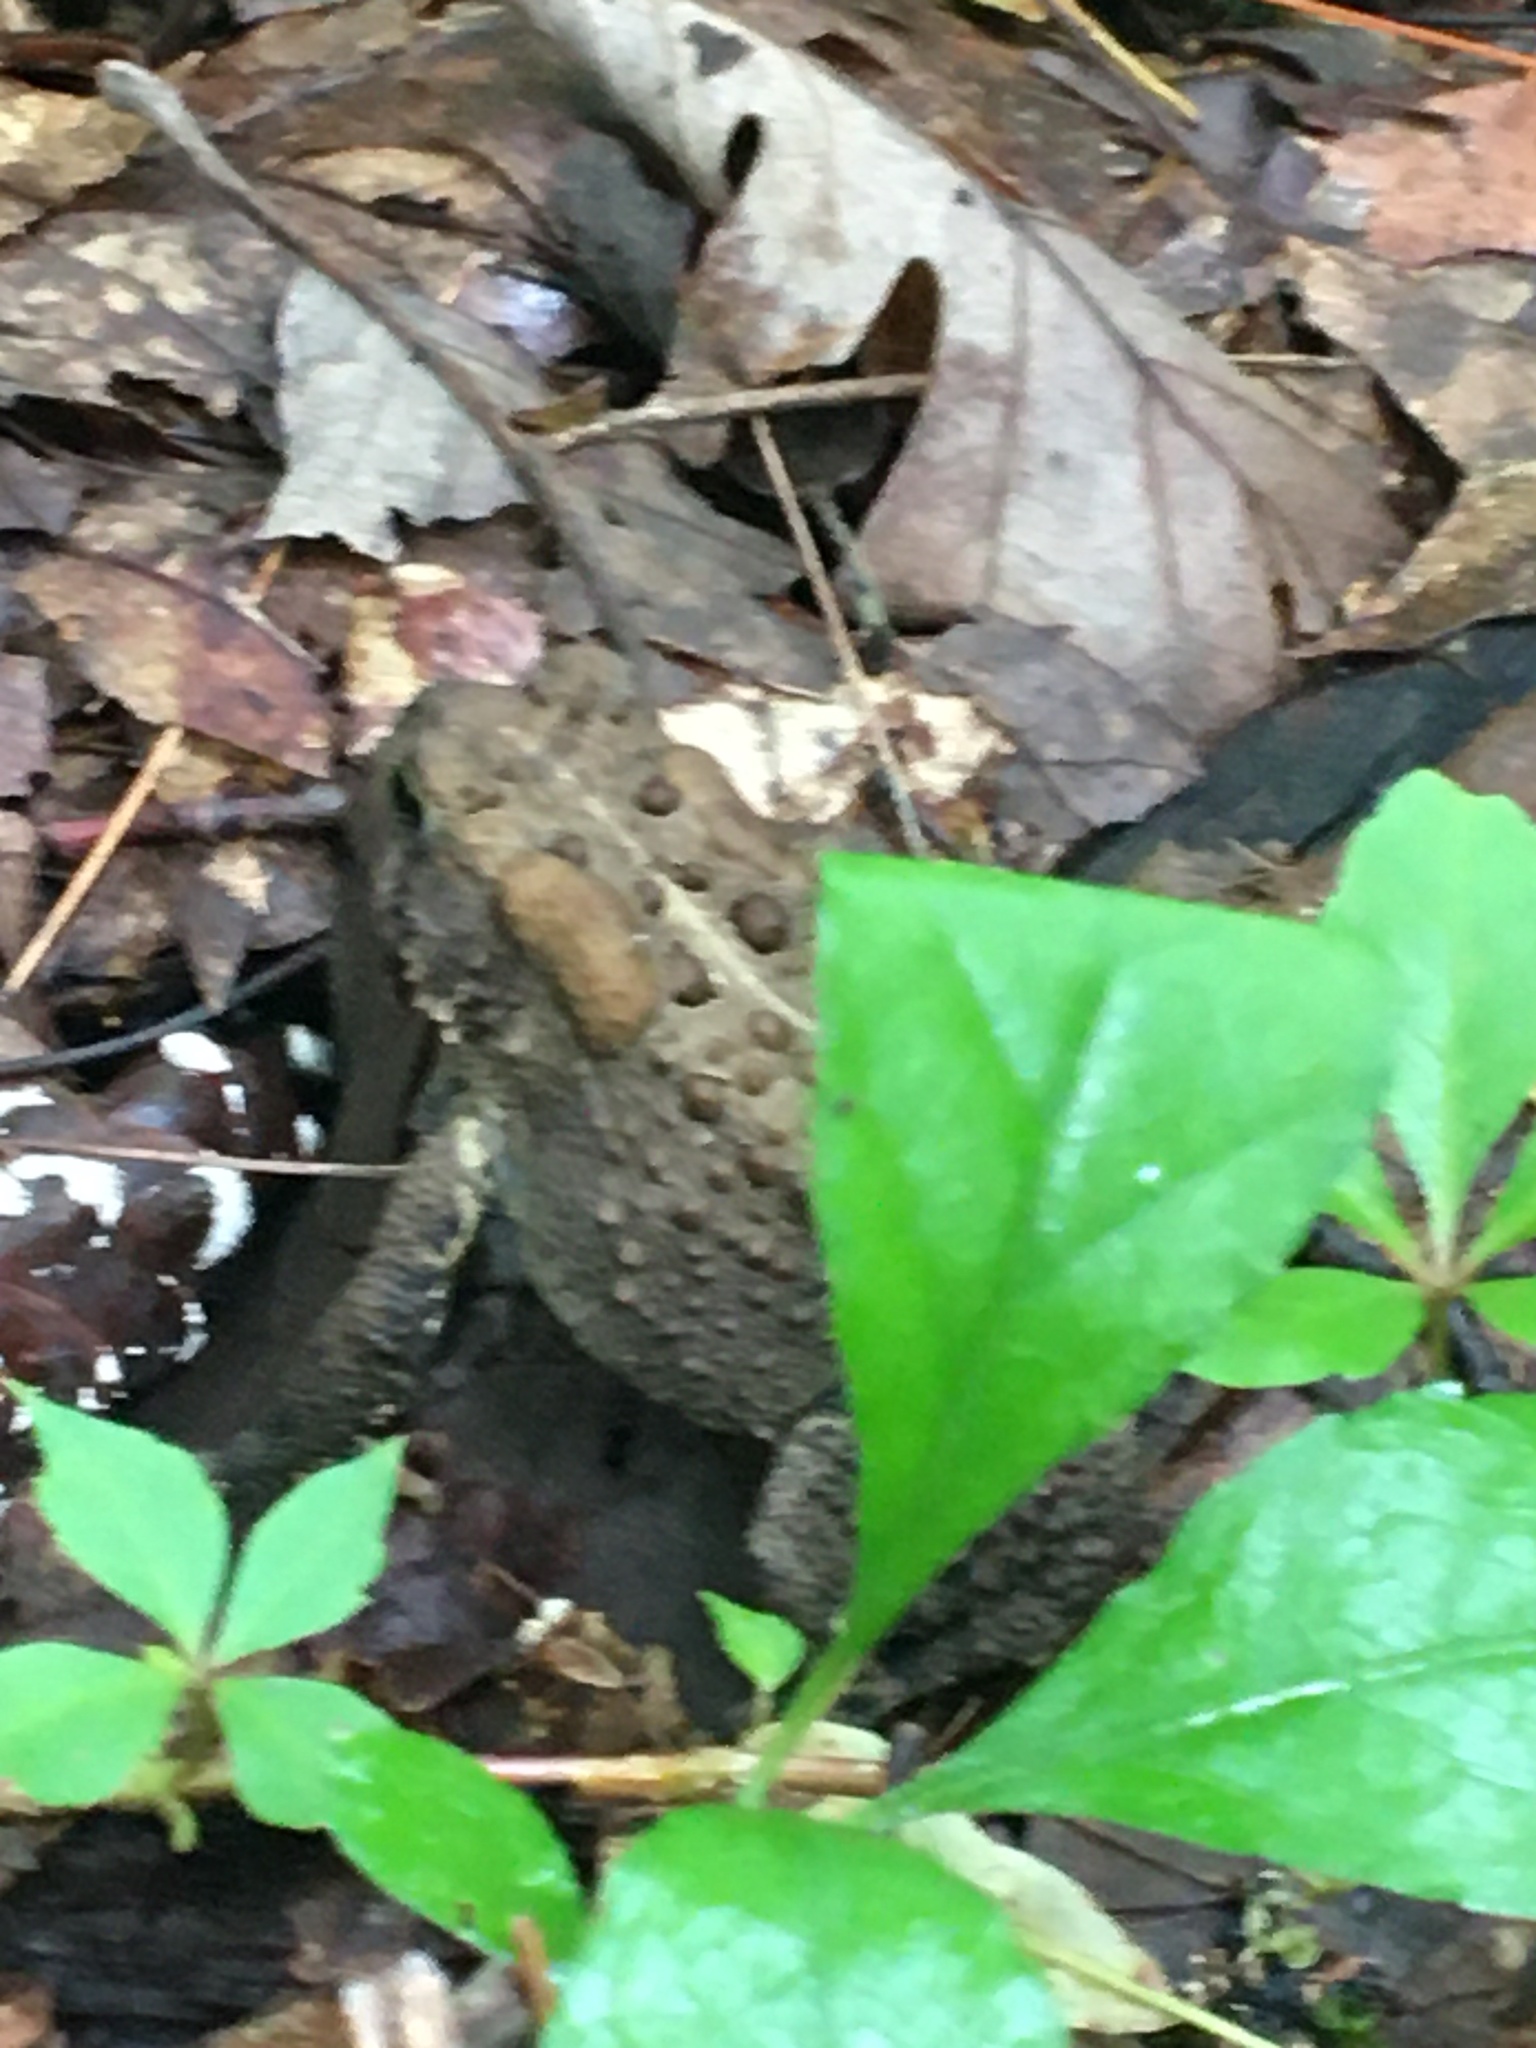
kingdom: Animalia
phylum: Chordata
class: Amphibia
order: Anura
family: Bufonidae
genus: Anaxyrus
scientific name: Anaxyrus americanus
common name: American toad
